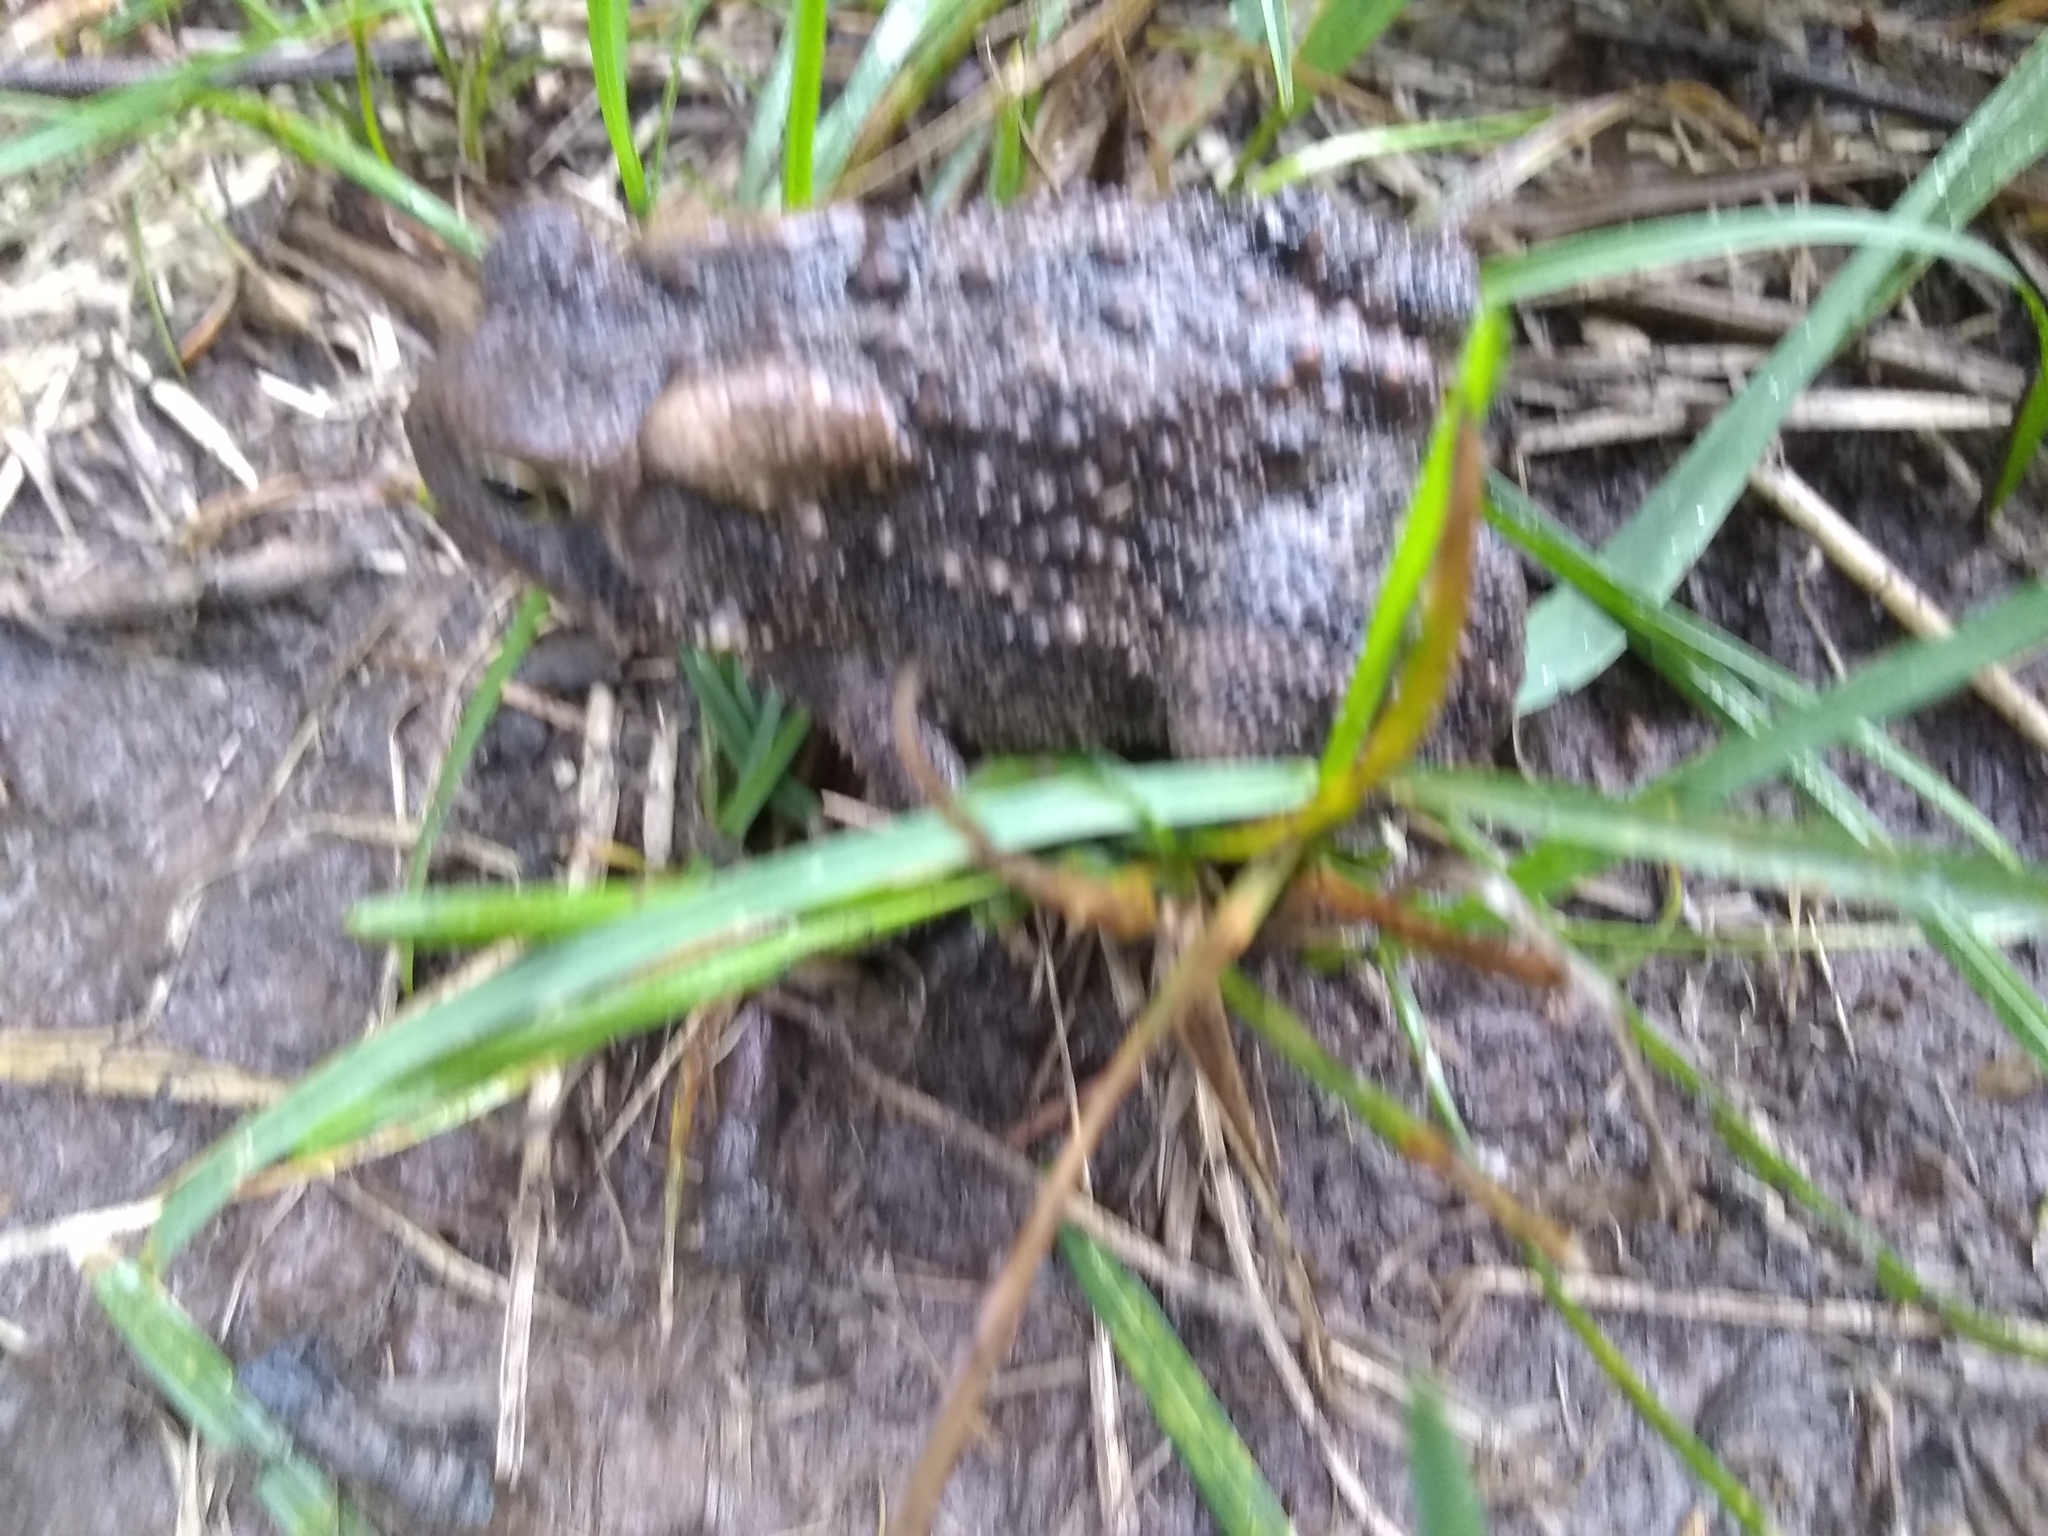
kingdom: Animalia
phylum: Chordata
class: Amphibia
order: Anura
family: Bufonidae
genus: Anaxyrus
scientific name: Anaxyrus americanus
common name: American toad
